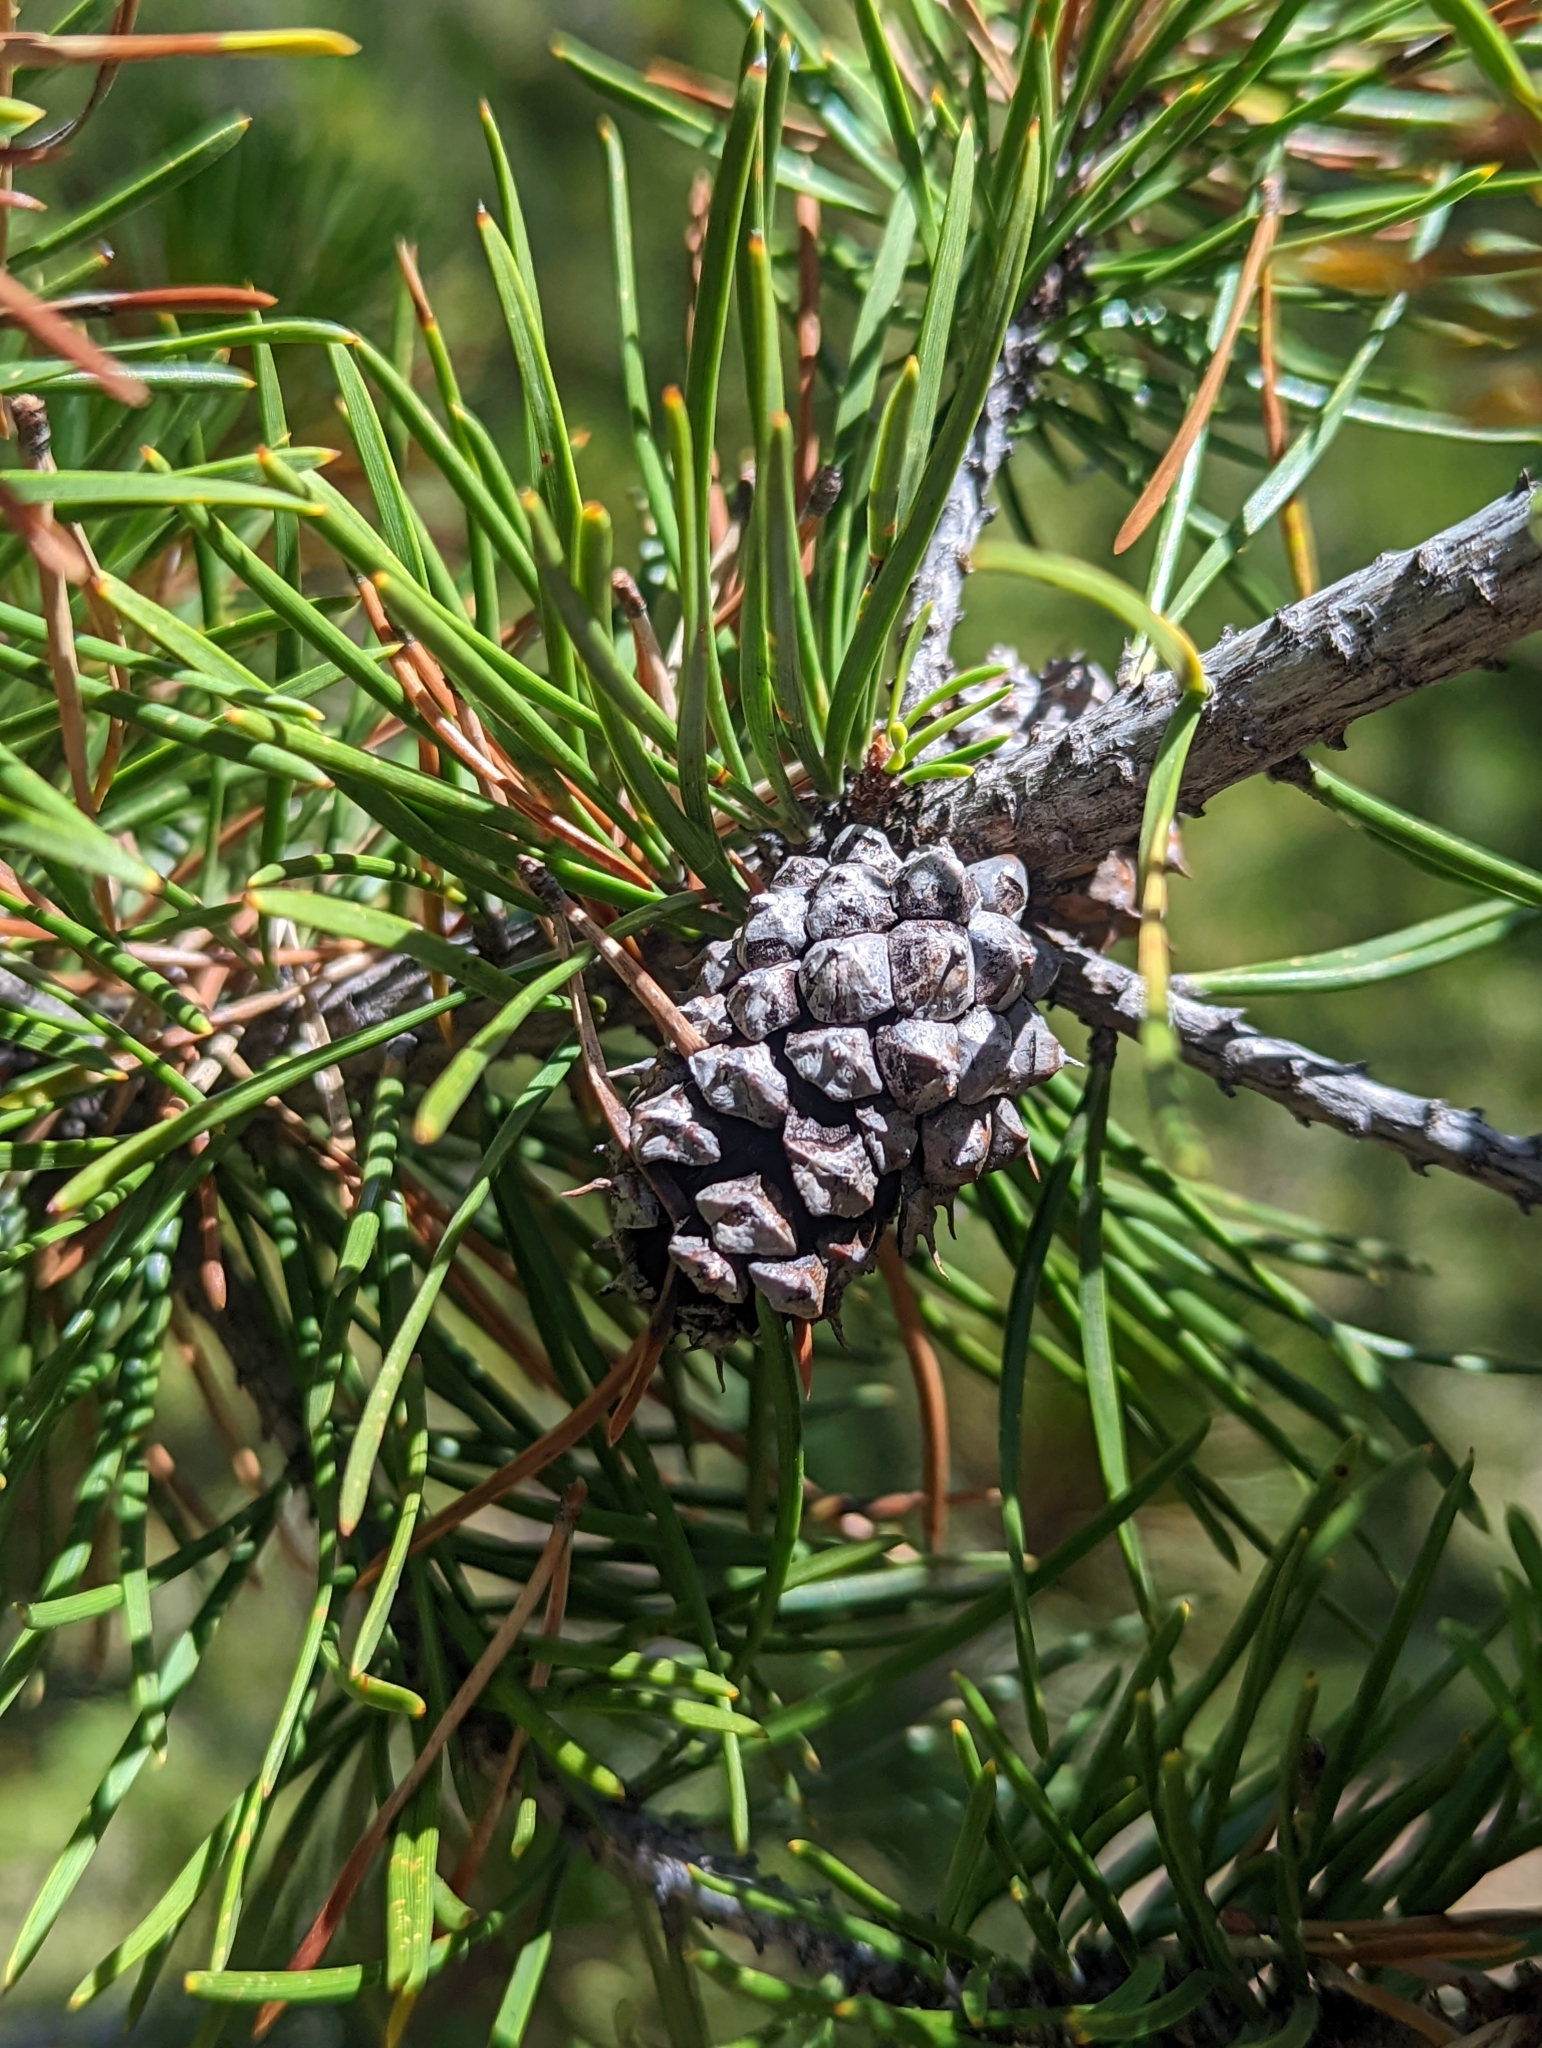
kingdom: Plantae
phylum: Tracheophyta
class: Pinopsida
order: Pinales
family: Pinaceae
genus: Pinus
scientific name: Pinus contorta
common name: Lodgepole pine
